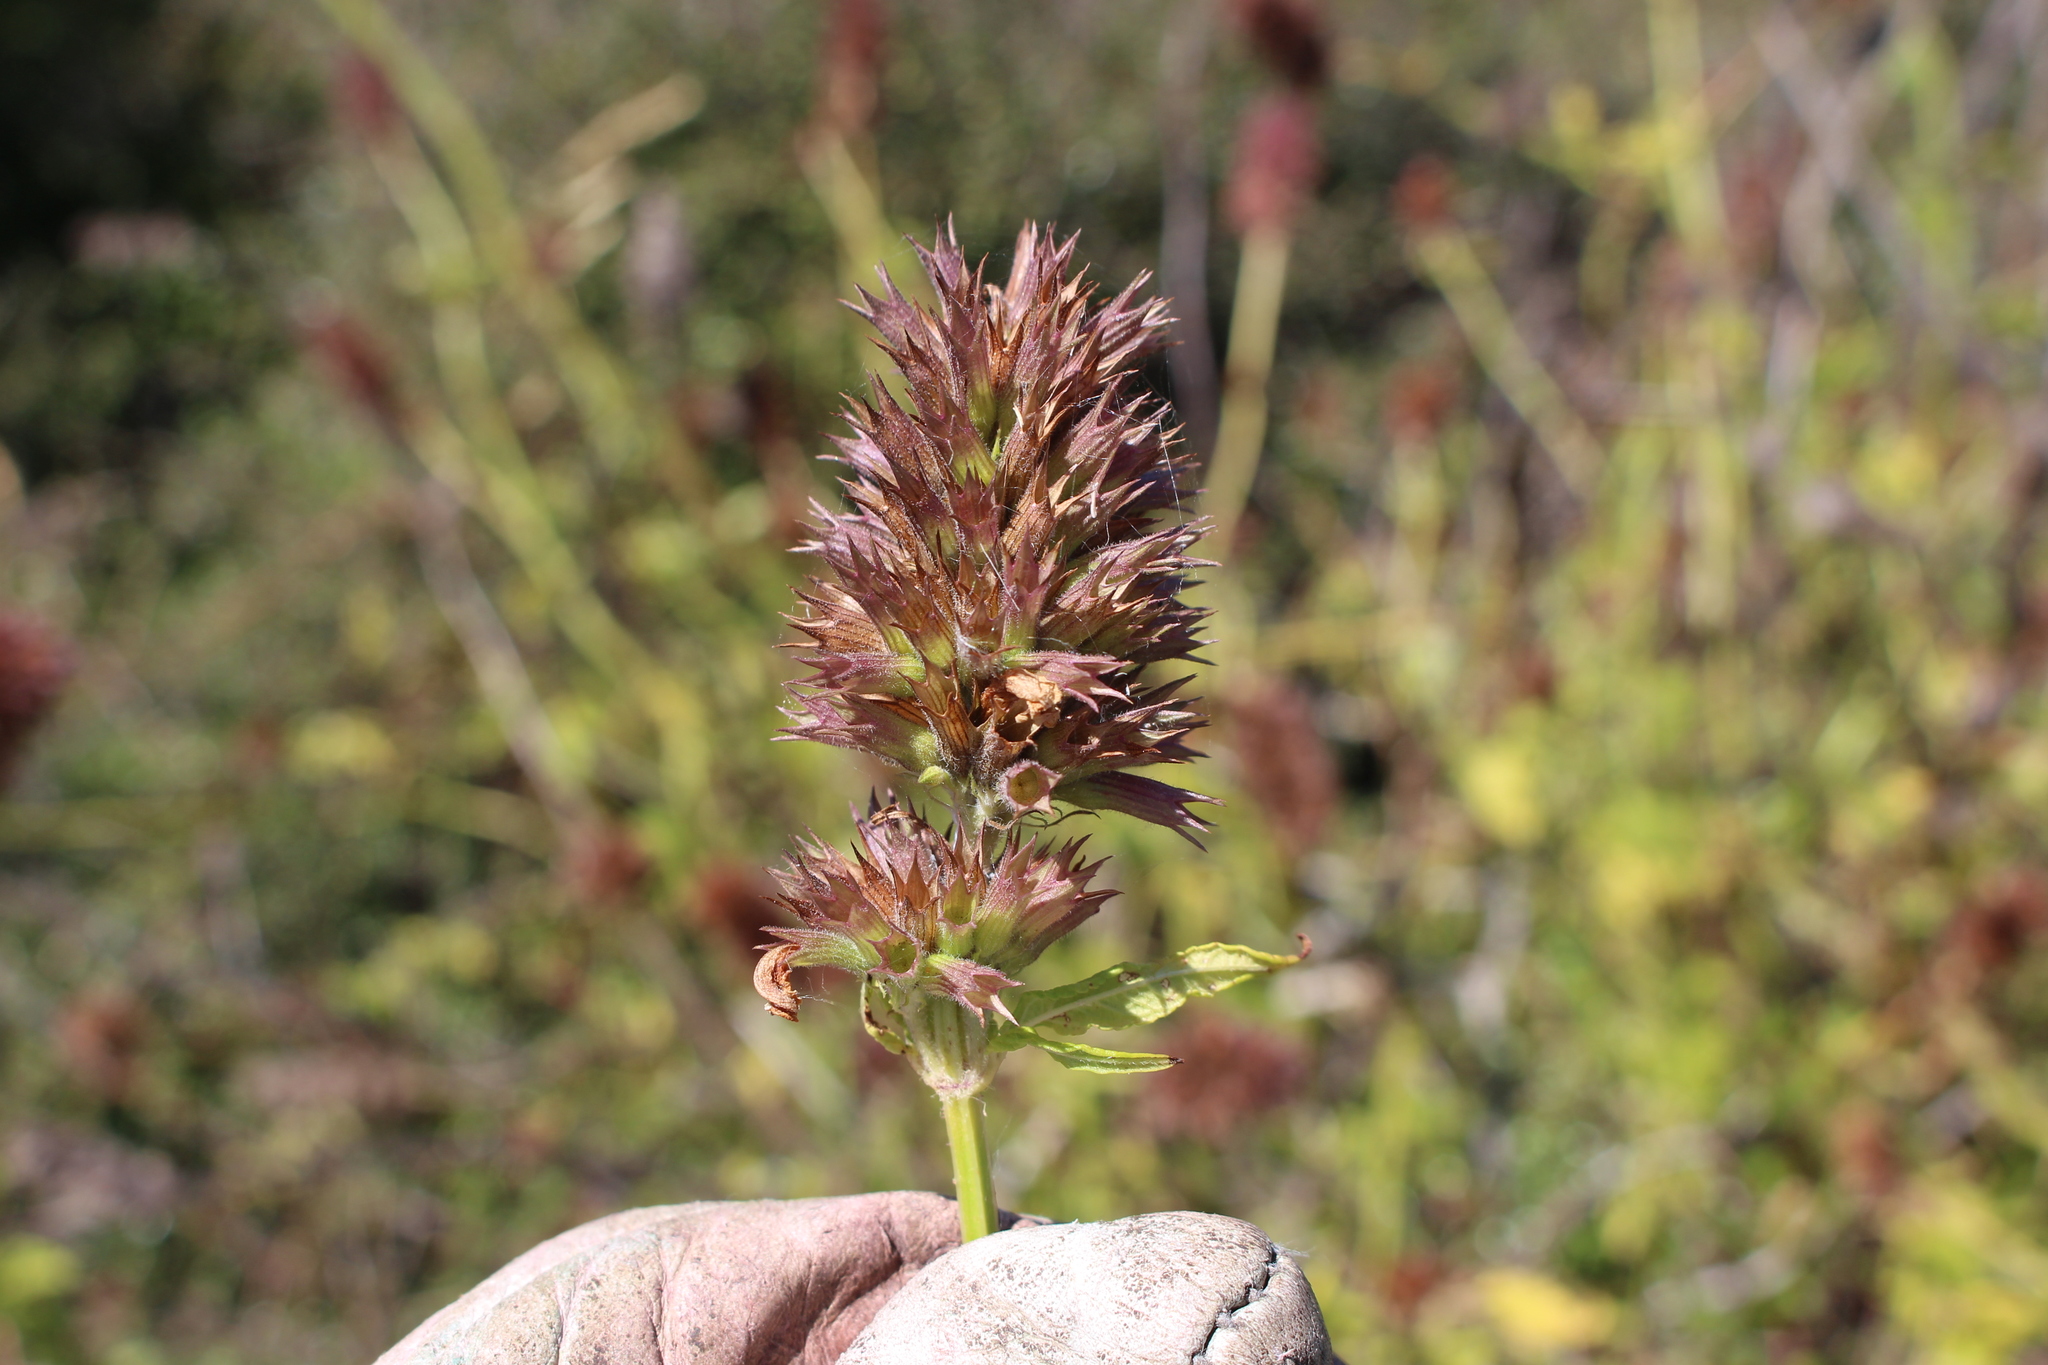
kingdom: Plantae
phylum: Tracheophyta
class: Magnoliopsida
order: Lamiales
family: Lamiaceae
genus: Cedronella
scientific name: Cedronella canariensis
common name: Canary islands balm
